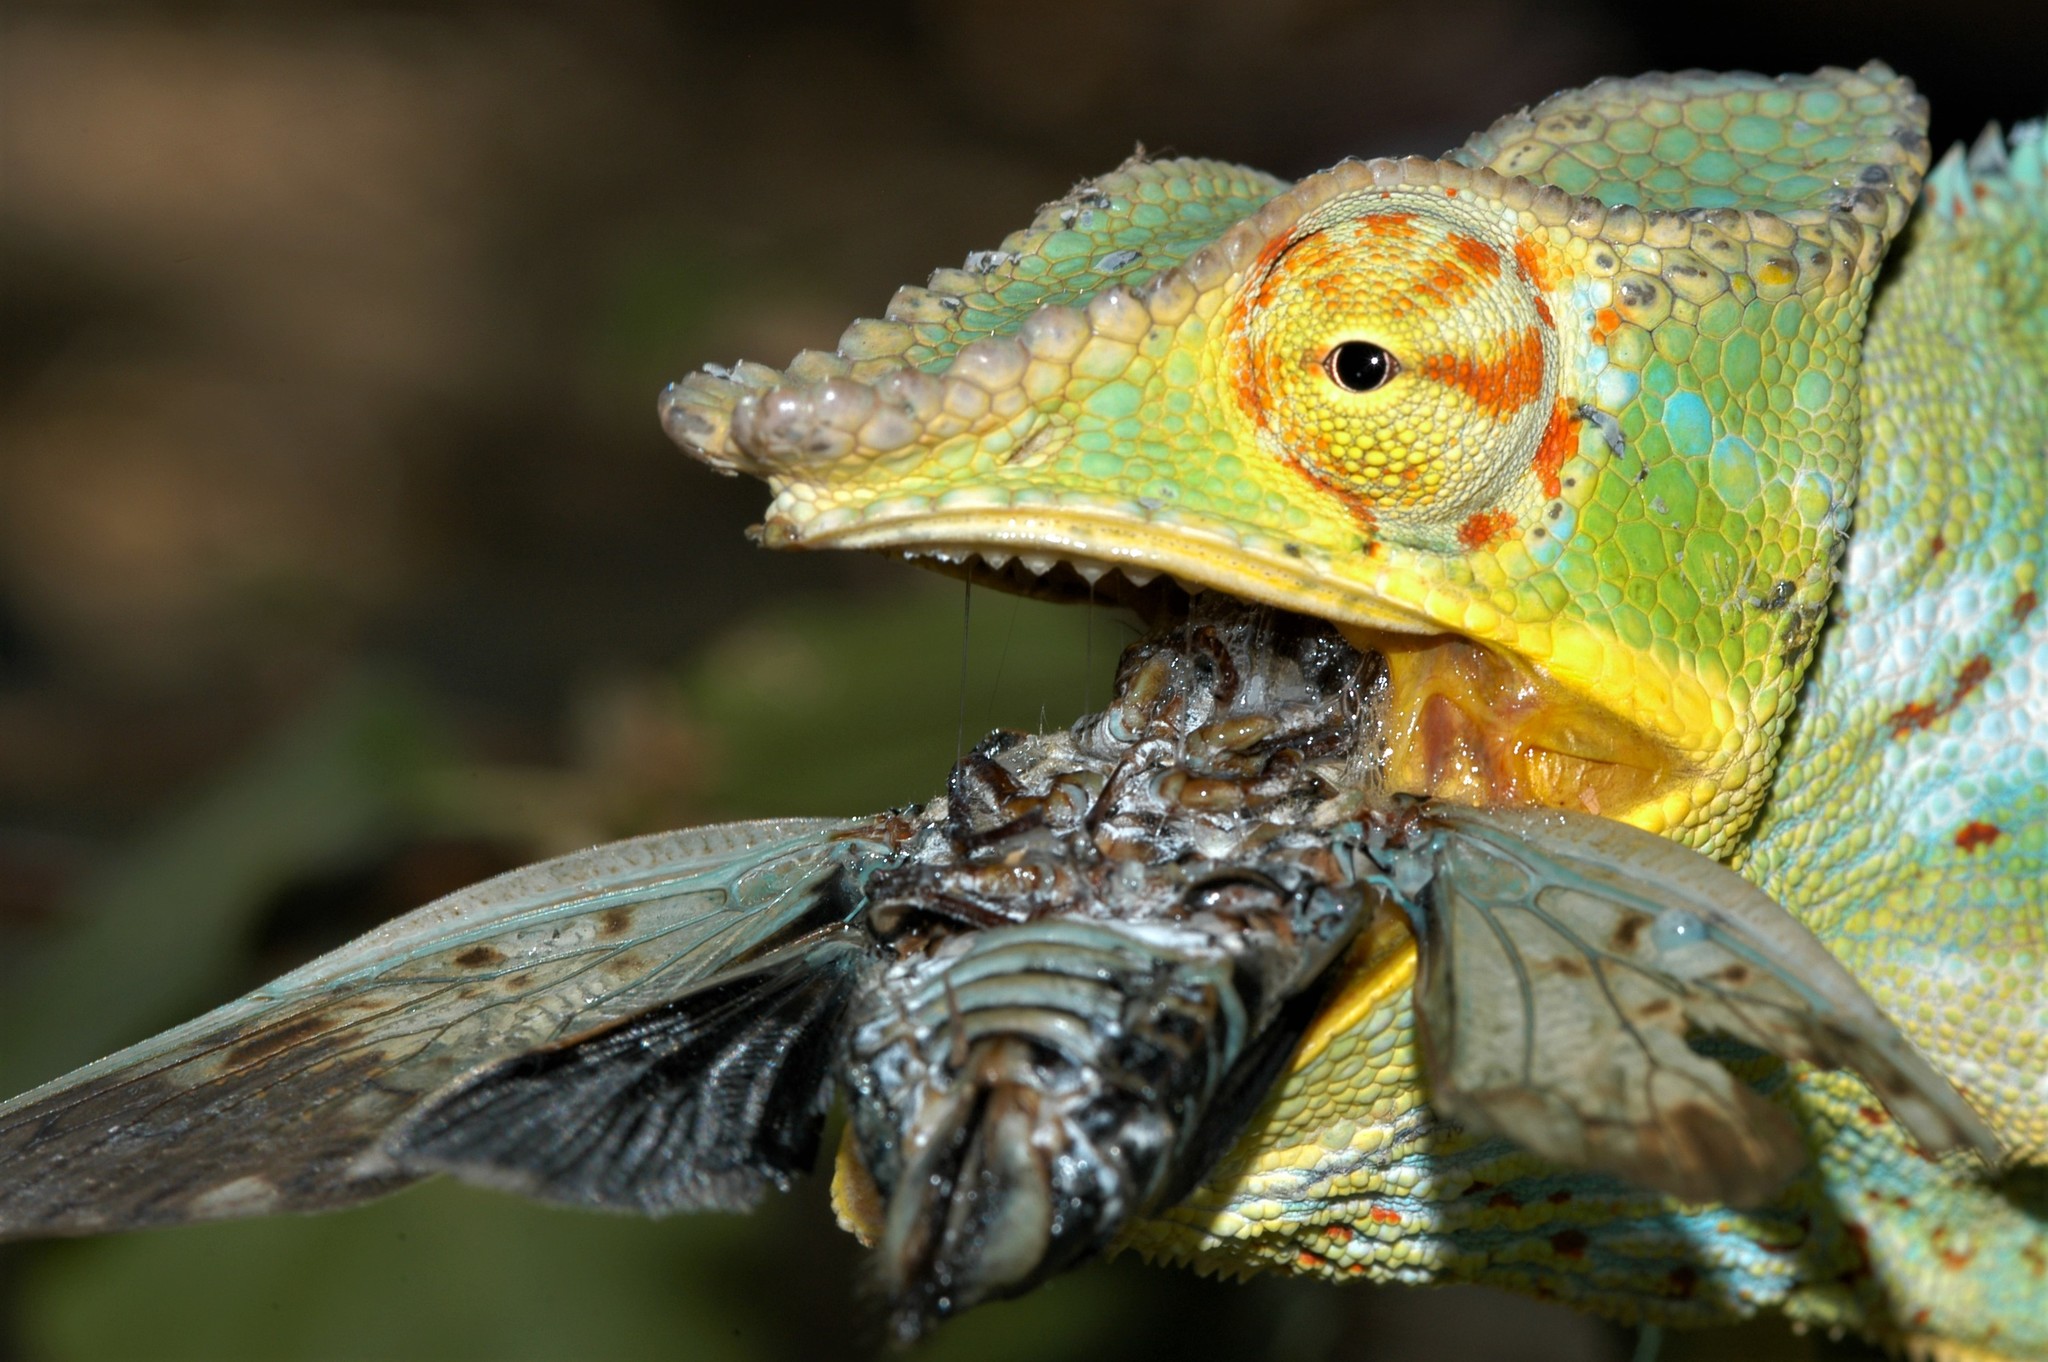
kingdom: Animalia
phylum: Chordata
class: Squamata
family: Chamaeleonidae
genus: Furcifer
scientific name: Furcifer pardalis
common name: Panther chameleon
